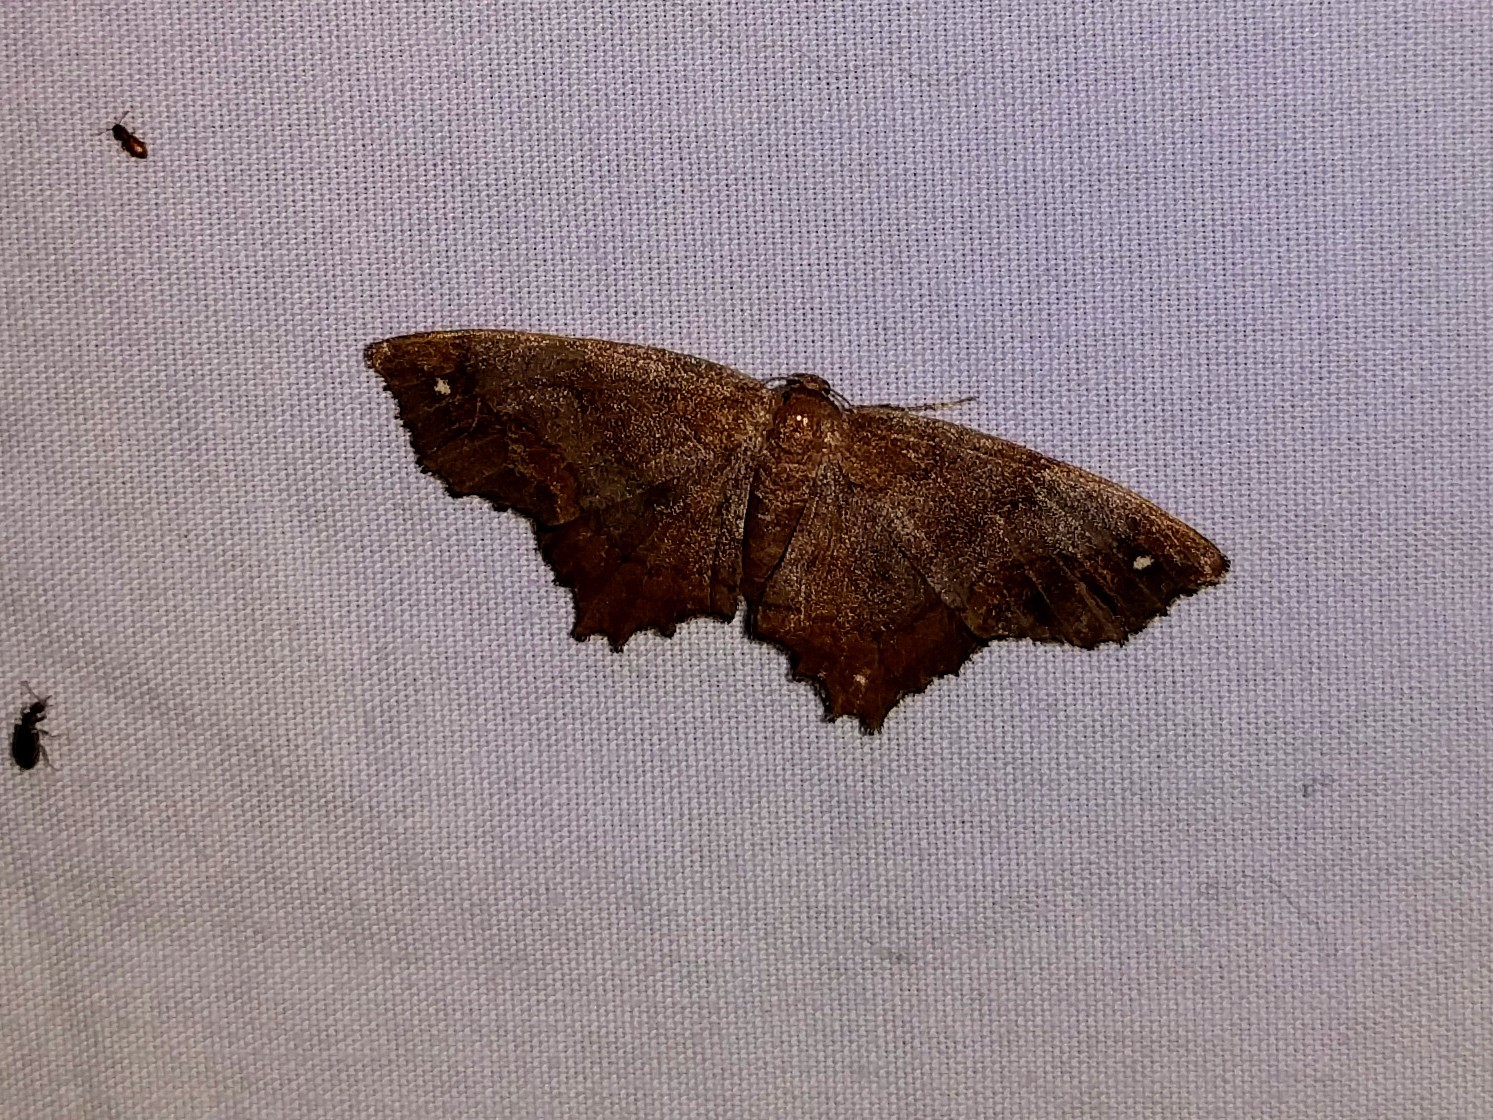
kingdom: Animalia
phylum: Arthropoda
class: Insecta
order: Lepidoptera
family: Geometridae
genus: Hypagyrtis
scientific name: Hypagyrtis esther
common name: Esther moth
